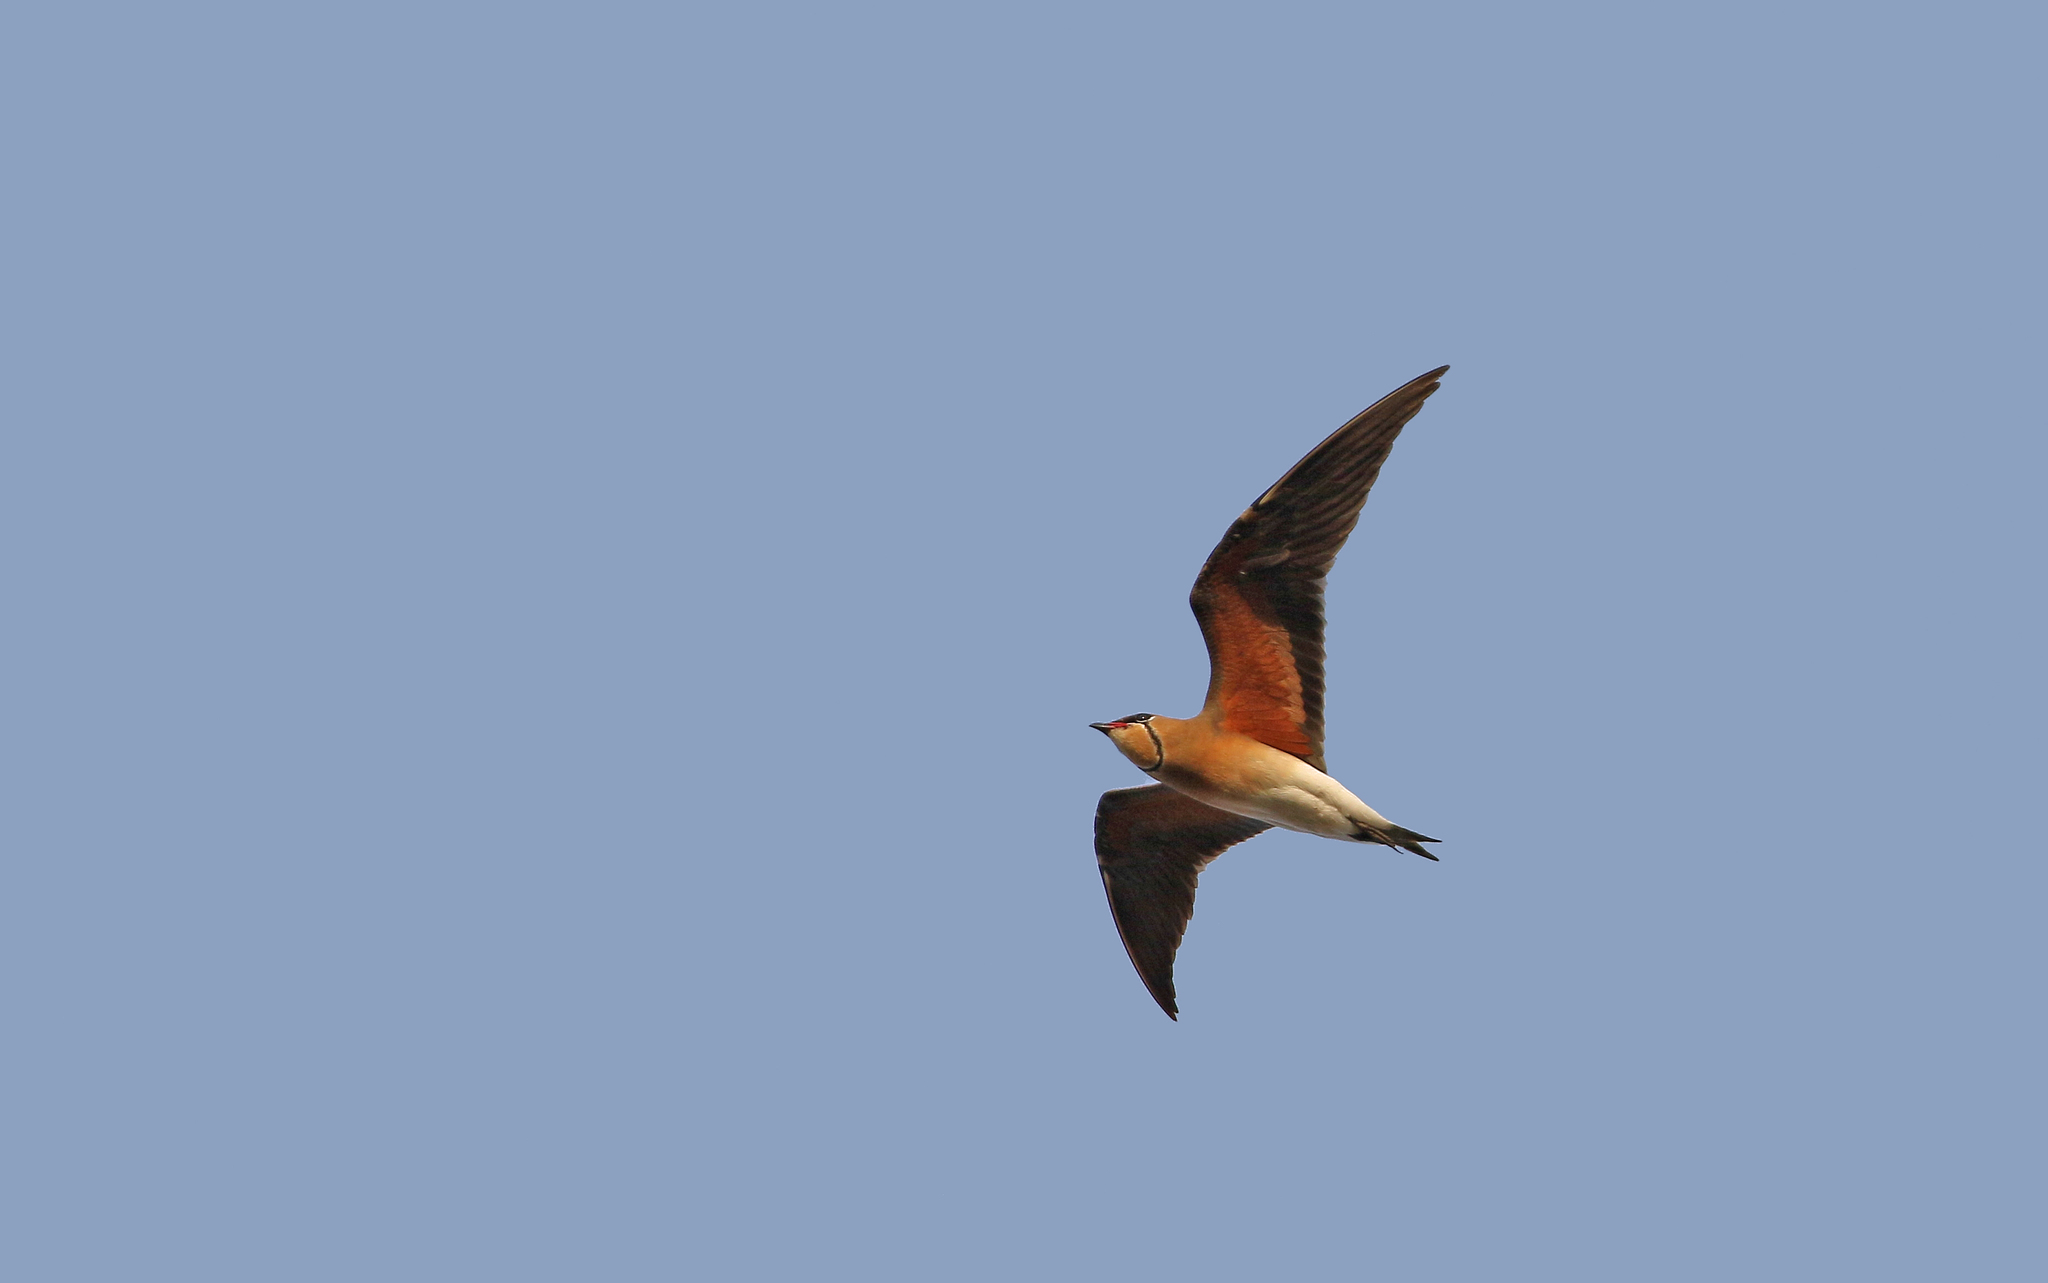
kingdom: Animalia
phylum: Chordata
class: Aves
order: Charadriiformes
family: Glareolidae
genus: Glareola
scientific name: Glareola maldivarum
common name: Oriental pratincole
